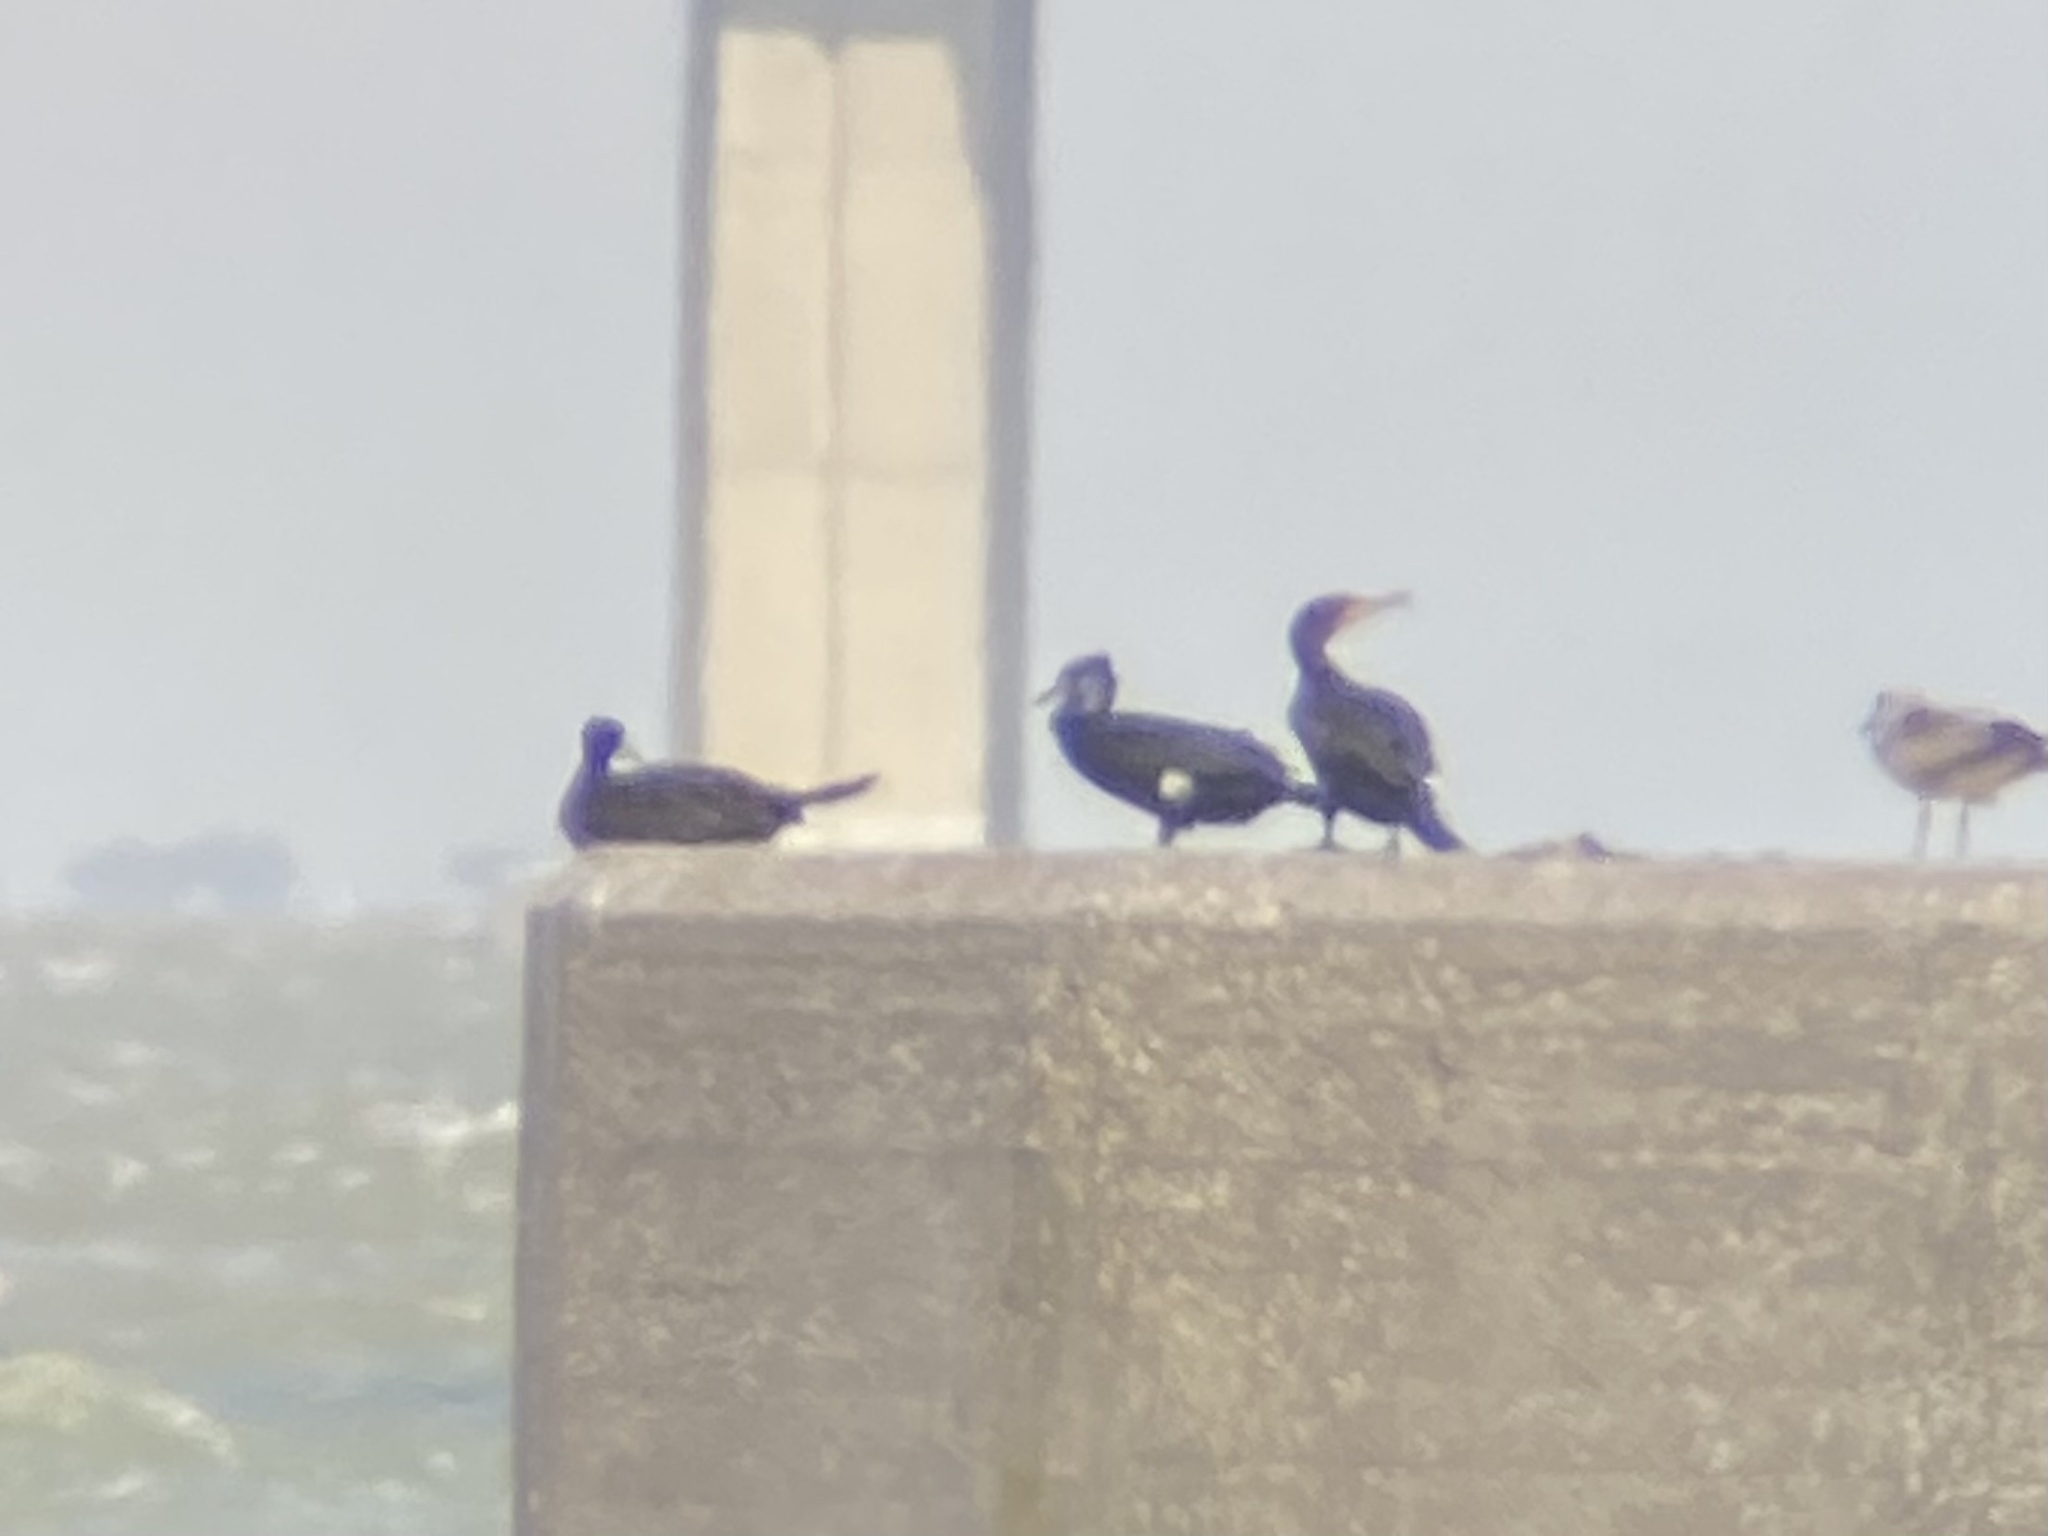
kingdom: Animalia
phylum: Chordata
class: Aves
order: Suliformes
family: Phalacrocoracidae
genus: Phalacrocorax
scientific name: Phalacrocorax carbo
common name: Great cormorant
